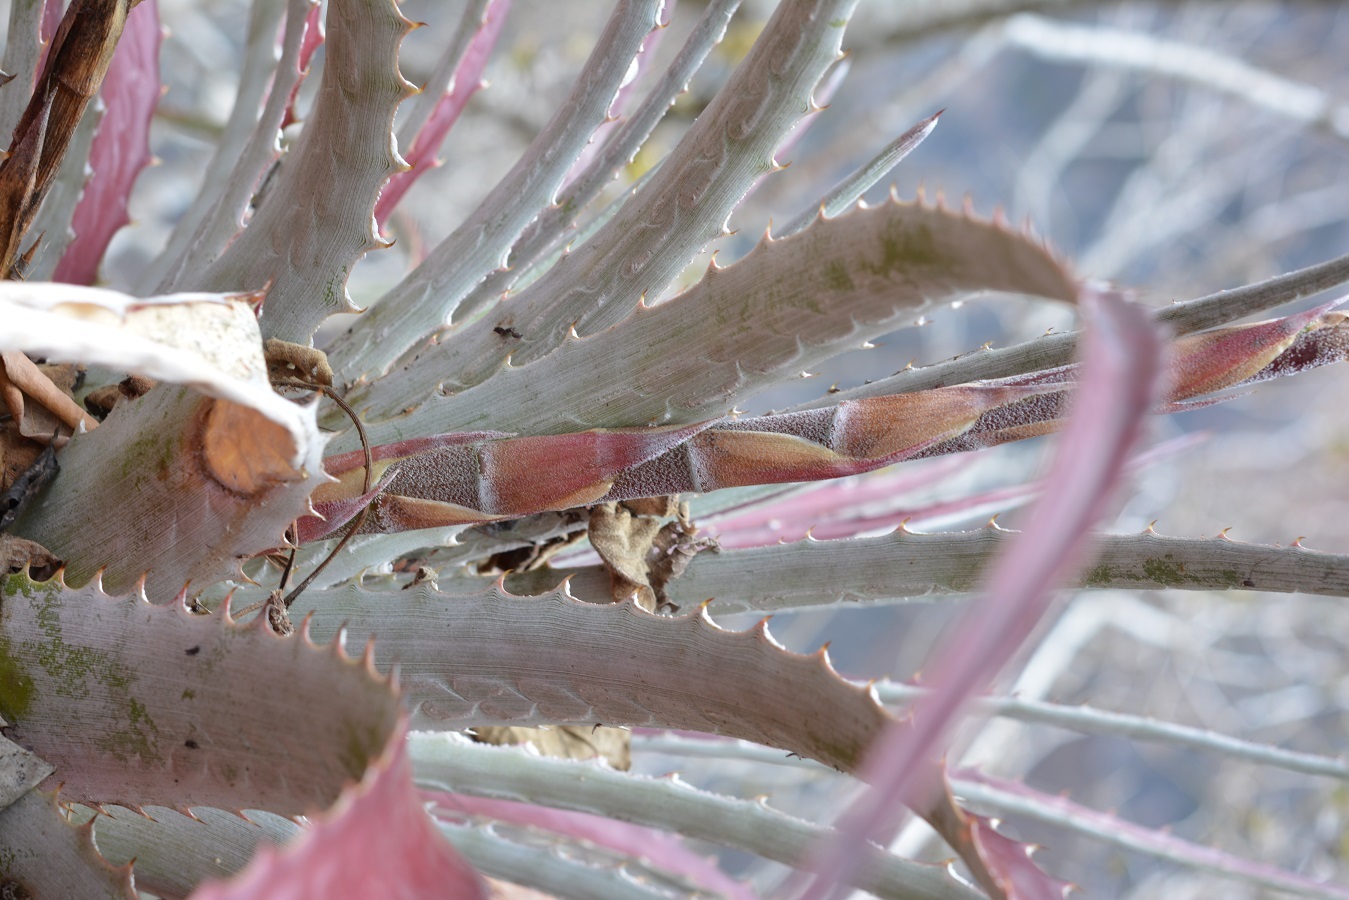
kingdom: Plantae
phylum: Tracheophyta
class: Liliopsida
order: Poales
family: Bromeliaceae
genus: Hechtia
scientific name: Hechtia glomerata
